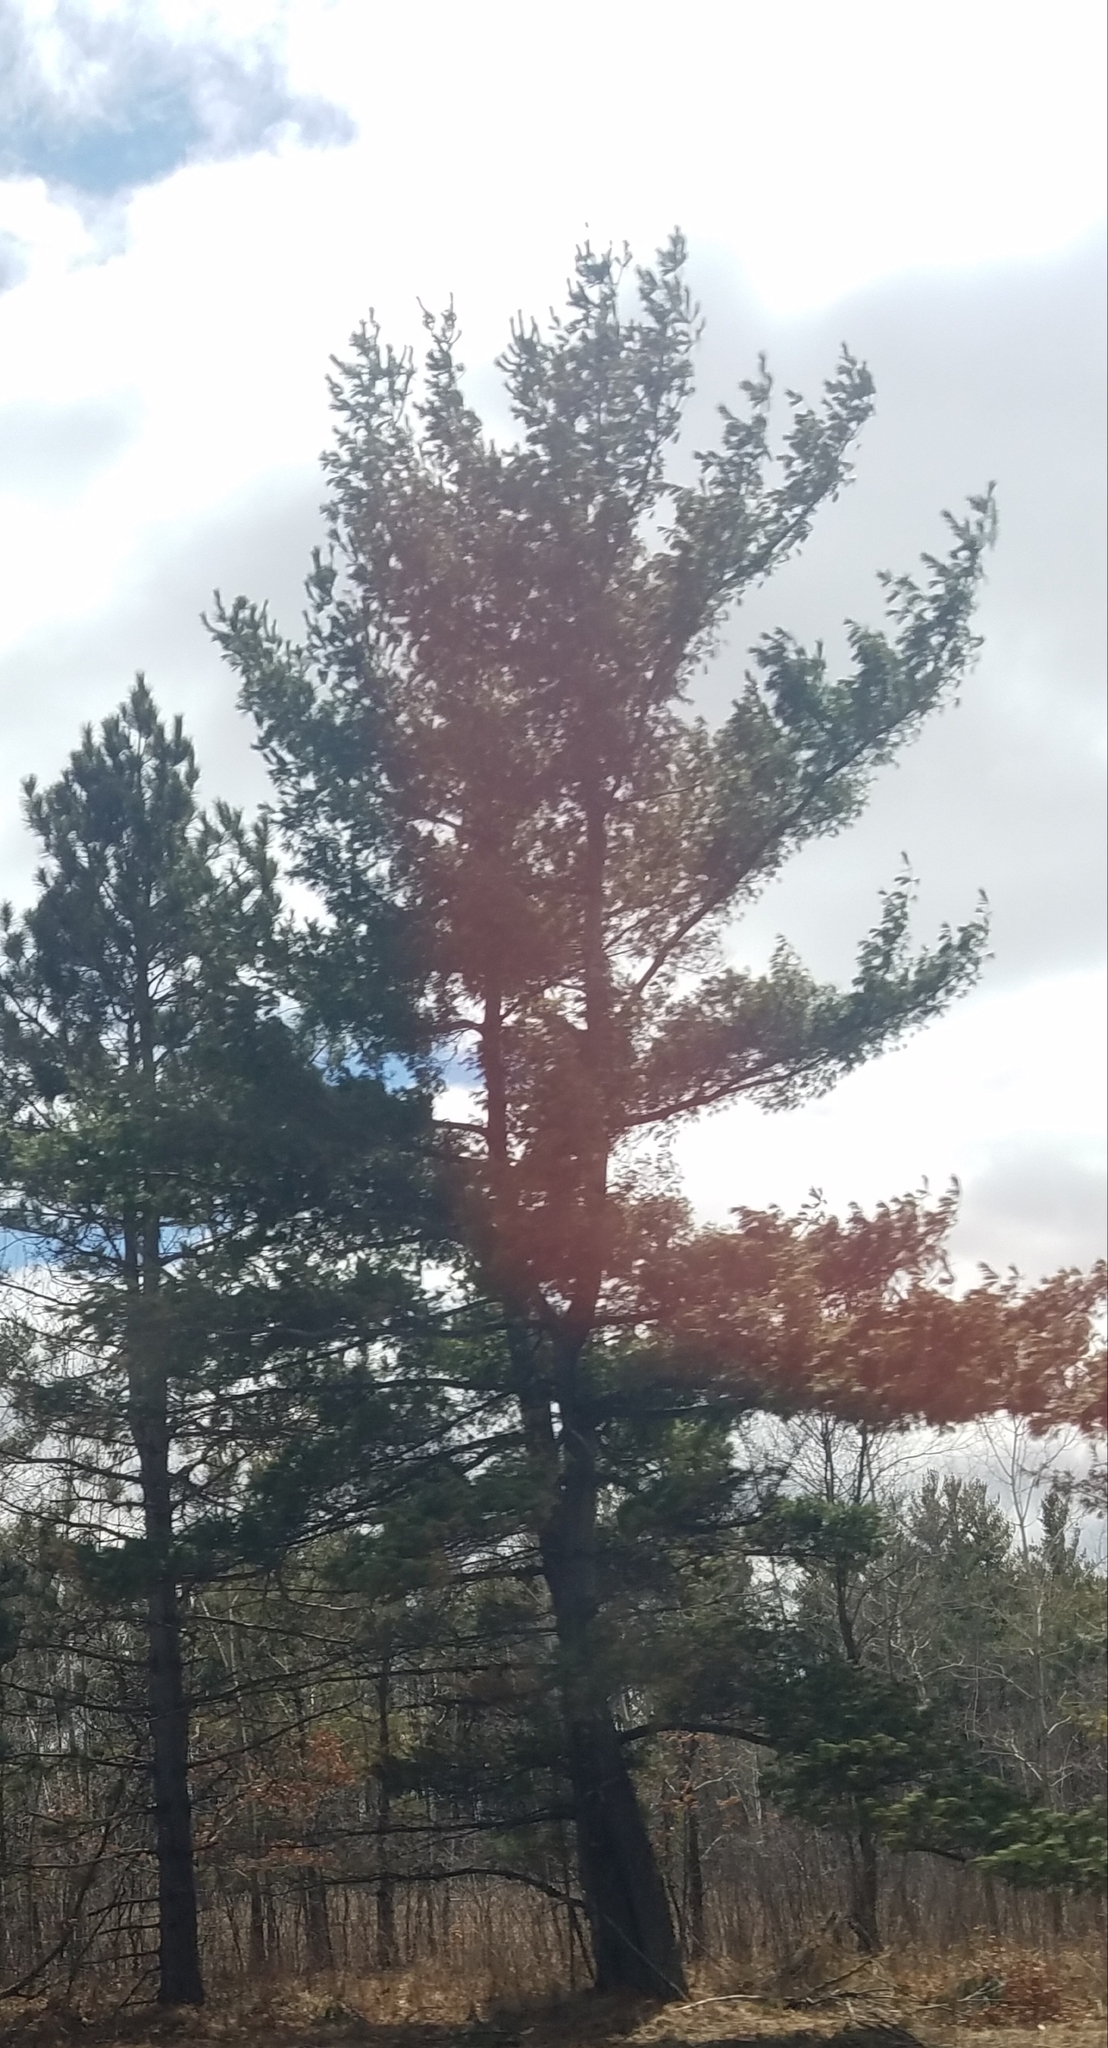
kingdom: Plantae
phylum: Tracheophyta
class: Pinopsida
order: Pinales
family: Pinaceae
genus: Pinus
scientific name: Pinus strobus
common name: Weymouth pine
